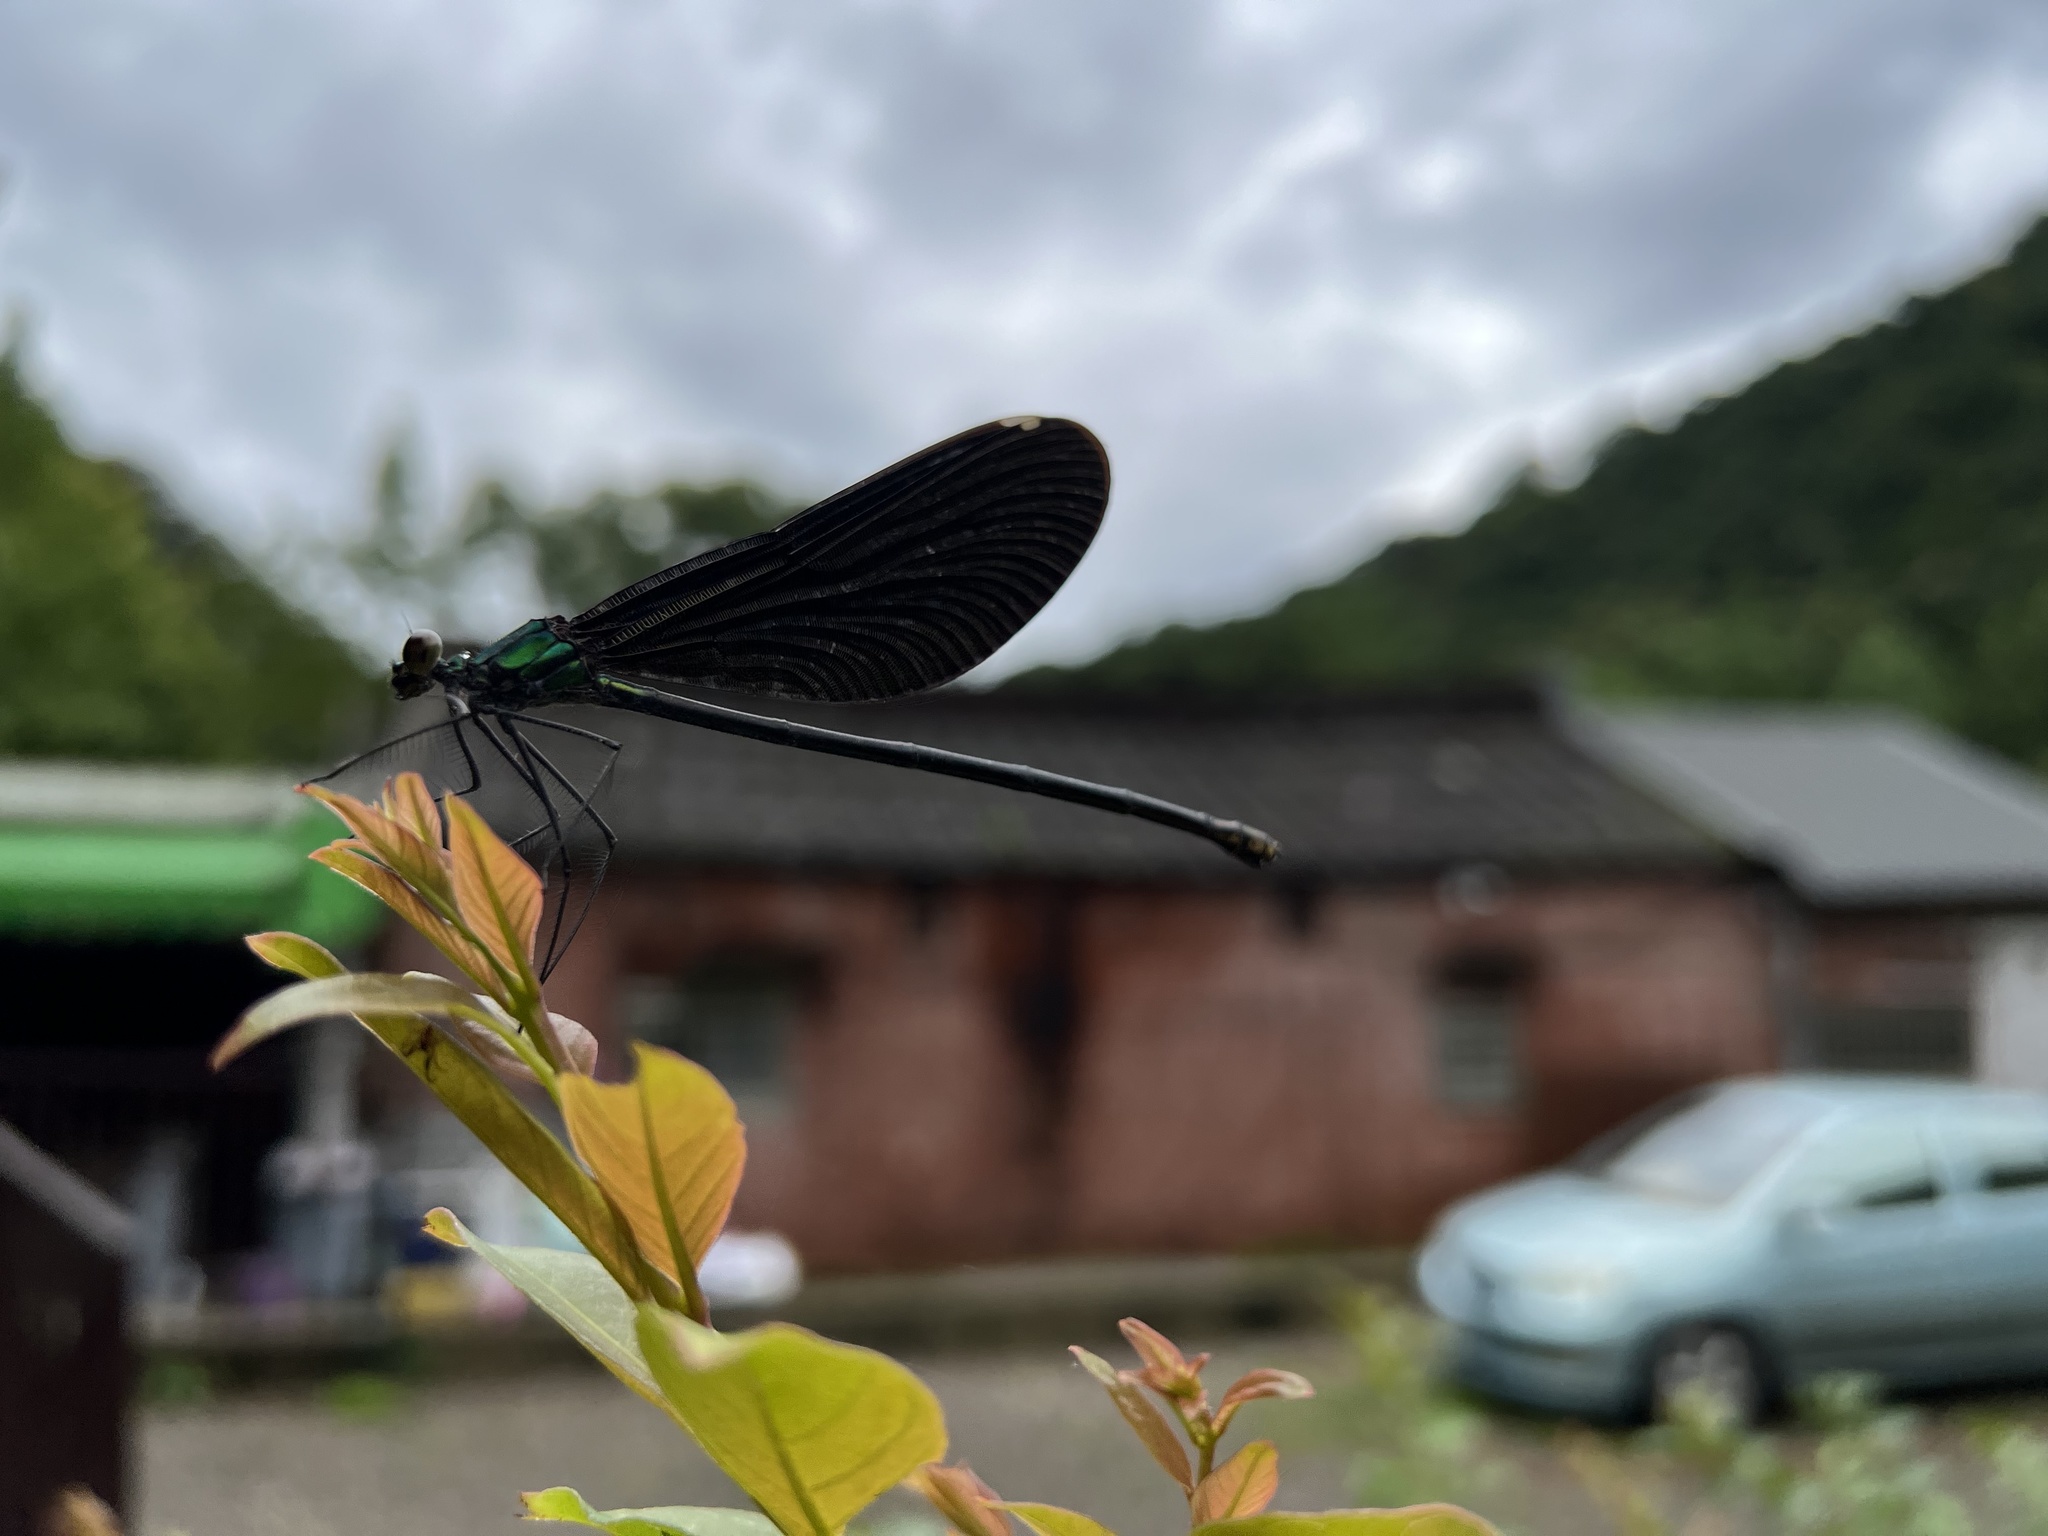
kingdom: Animalia
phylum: Arthropoda
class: Insecta
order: Odonata
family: Calopterygidae
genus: Matrona
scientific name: Matrona cyanoptera
